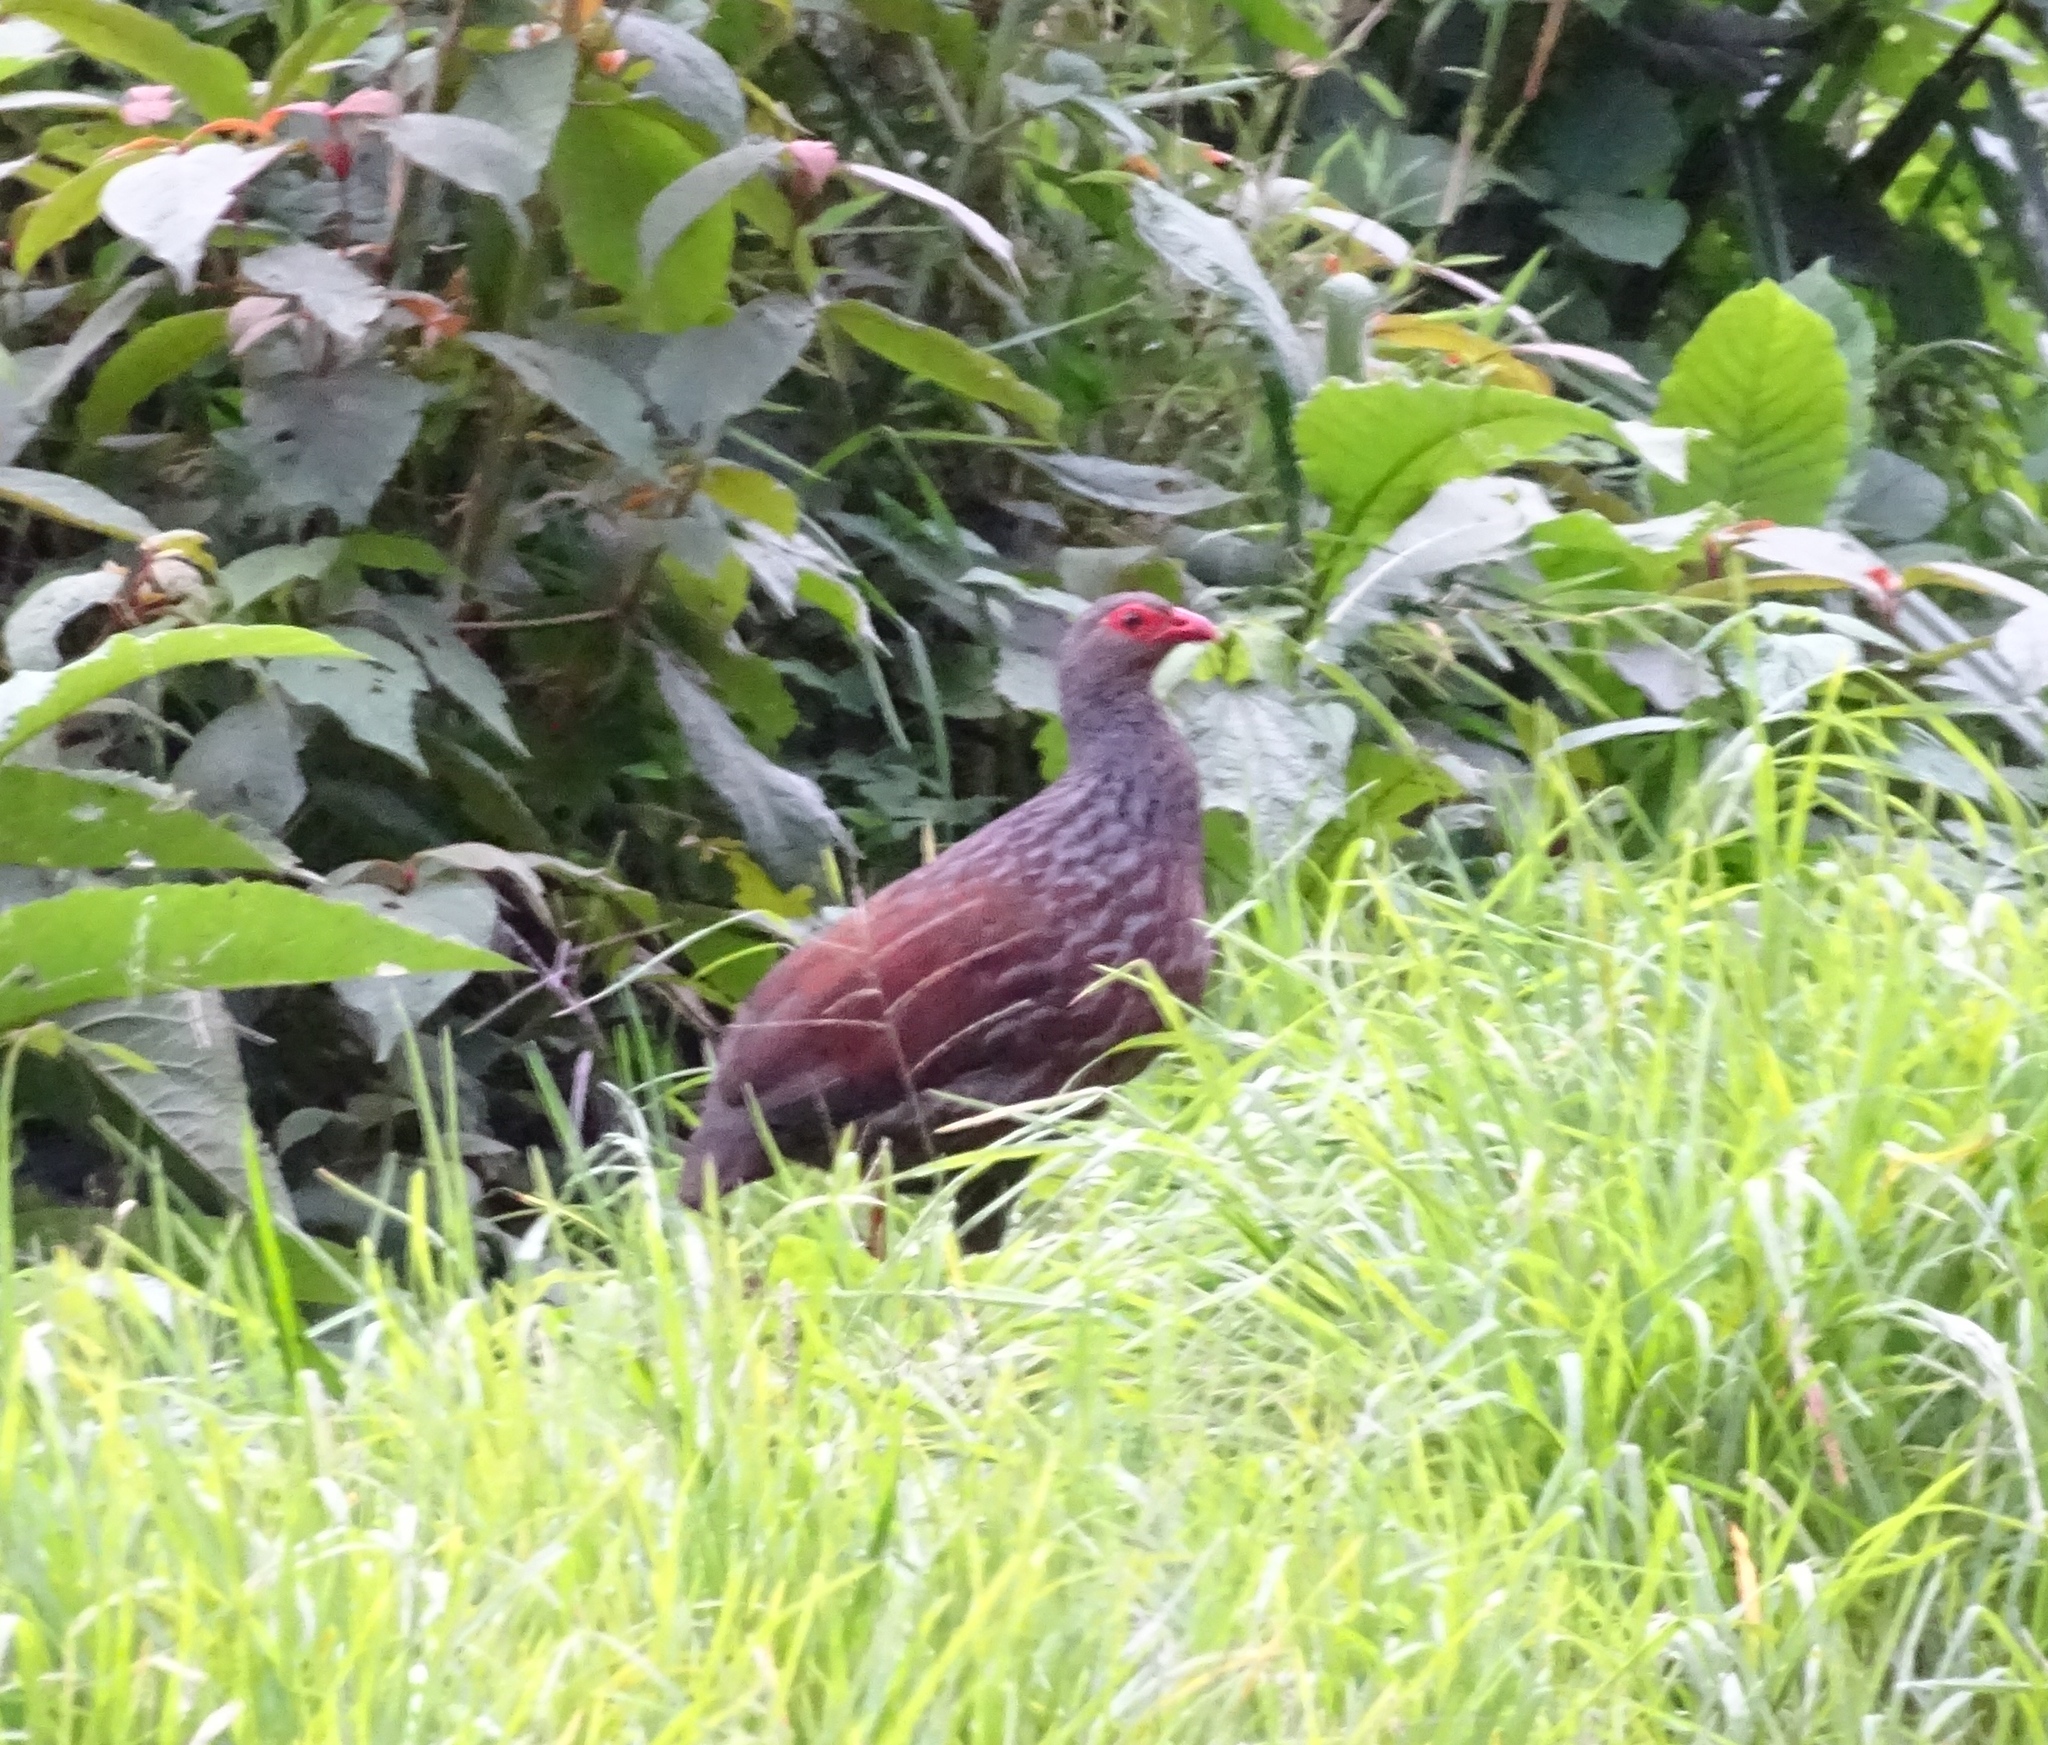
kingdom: Animalia
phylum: Chordata
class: Aves
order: Galliformes
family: Phasianidae
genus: Pternistis
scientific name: Pternistis nobilis
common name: Handsome francolin
